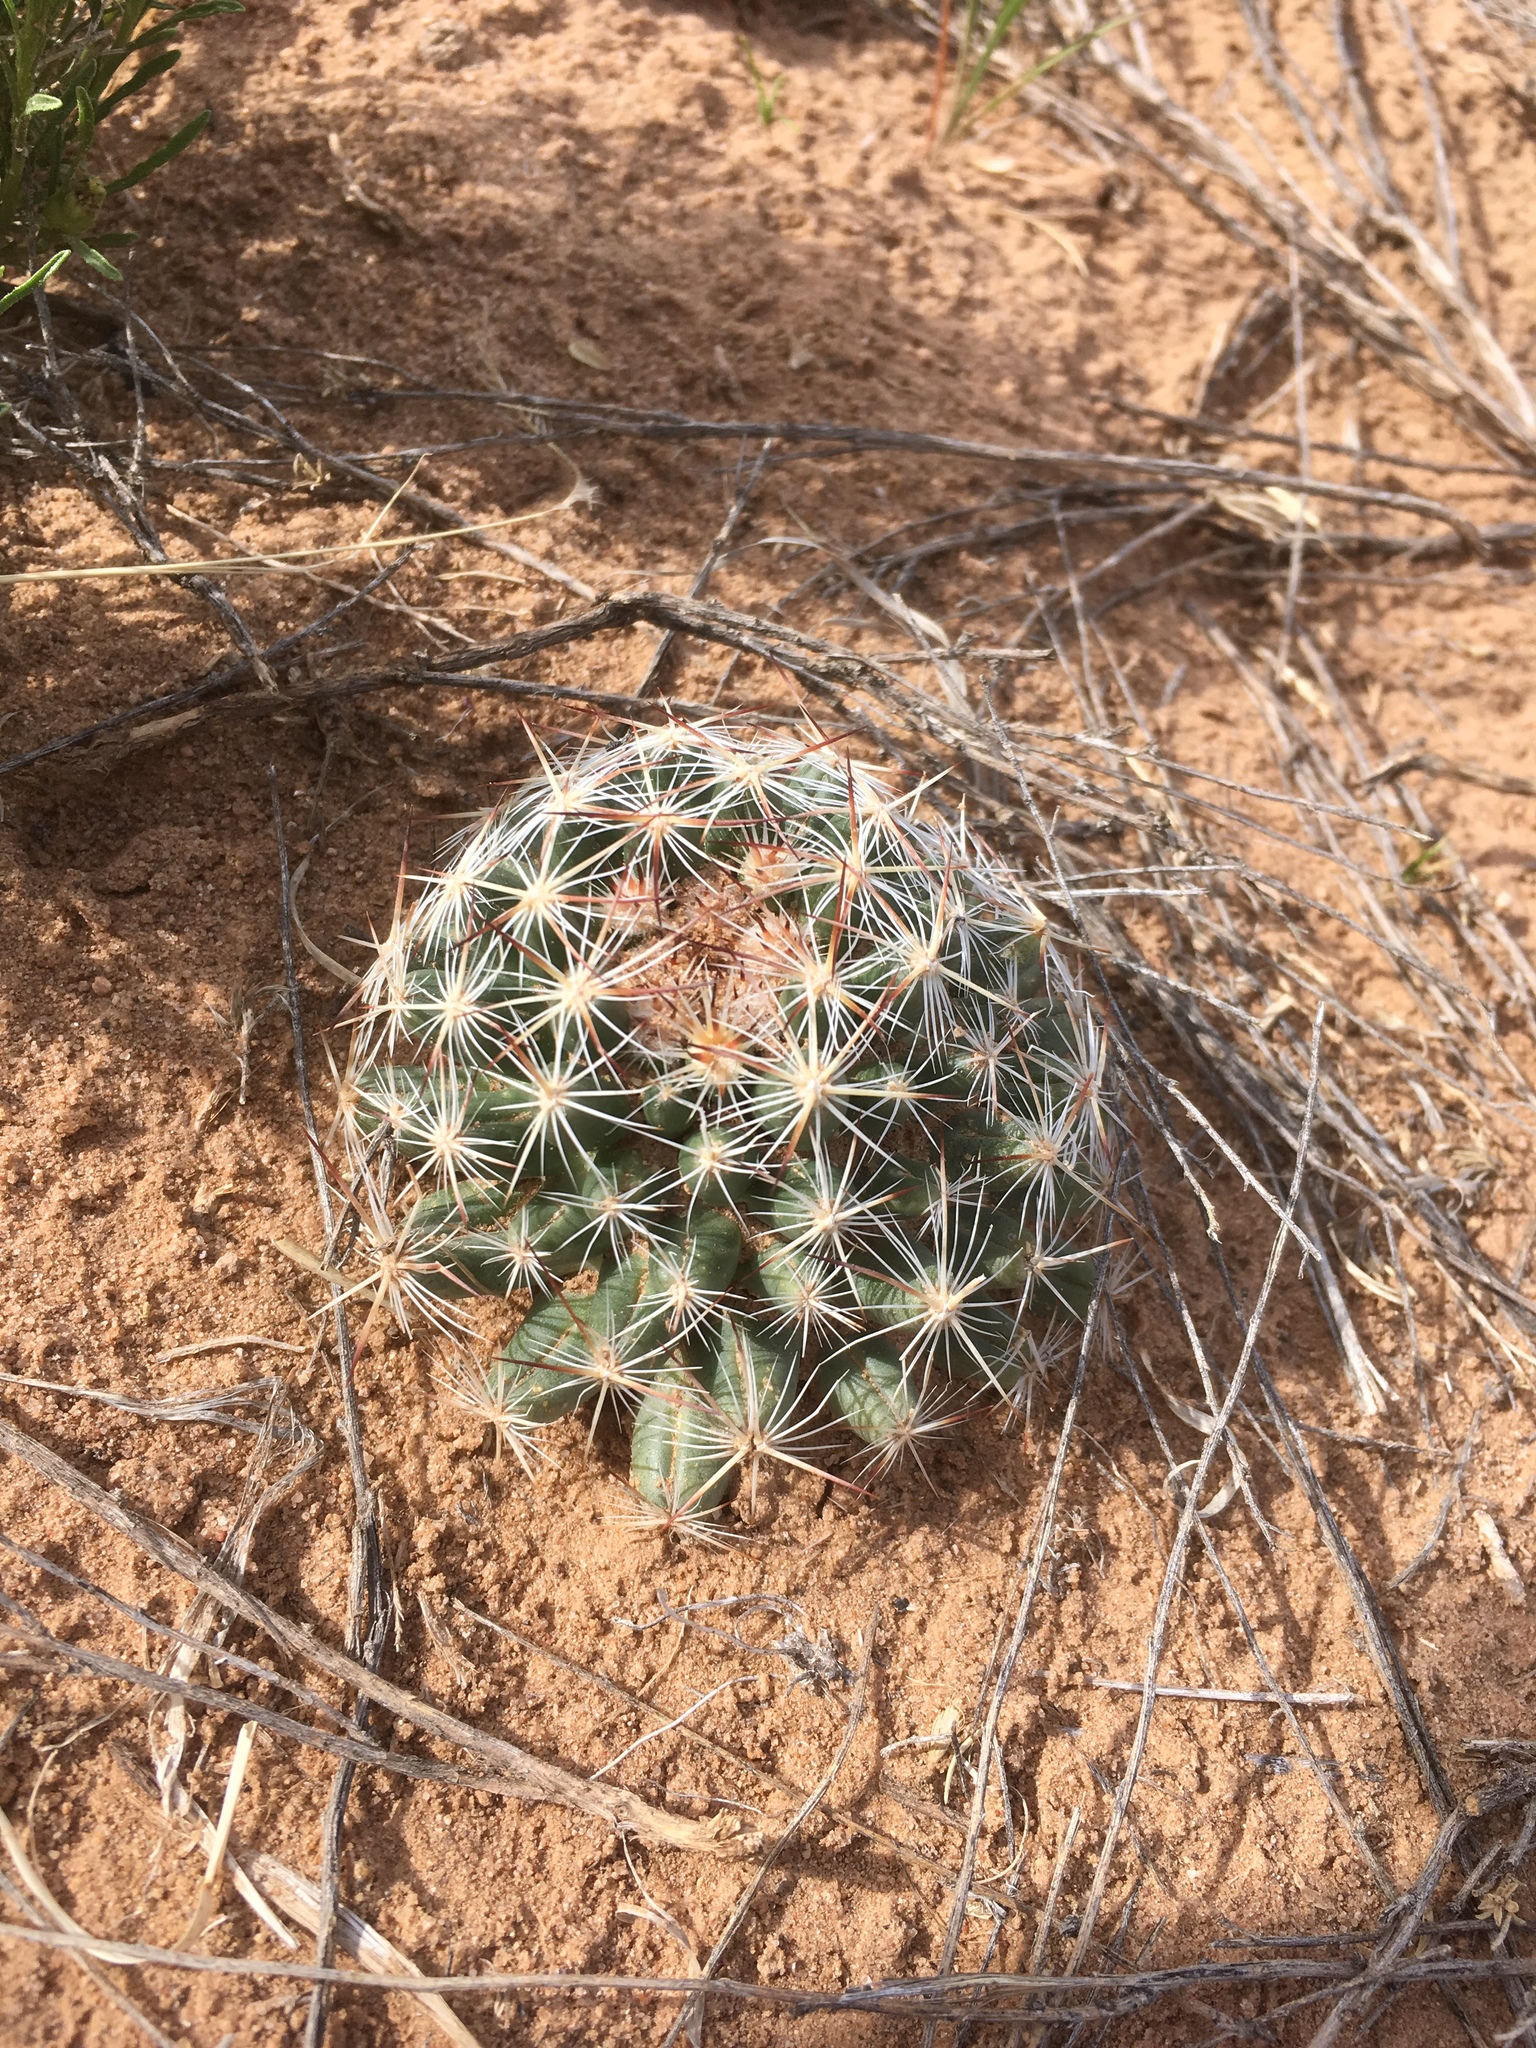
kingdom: Plantae
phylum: Tracheophyta
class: Magnoliopsida
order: Caryophyllales
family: Cactaceae
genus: Pelecyphora
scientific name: Pelecyphora vivipara
